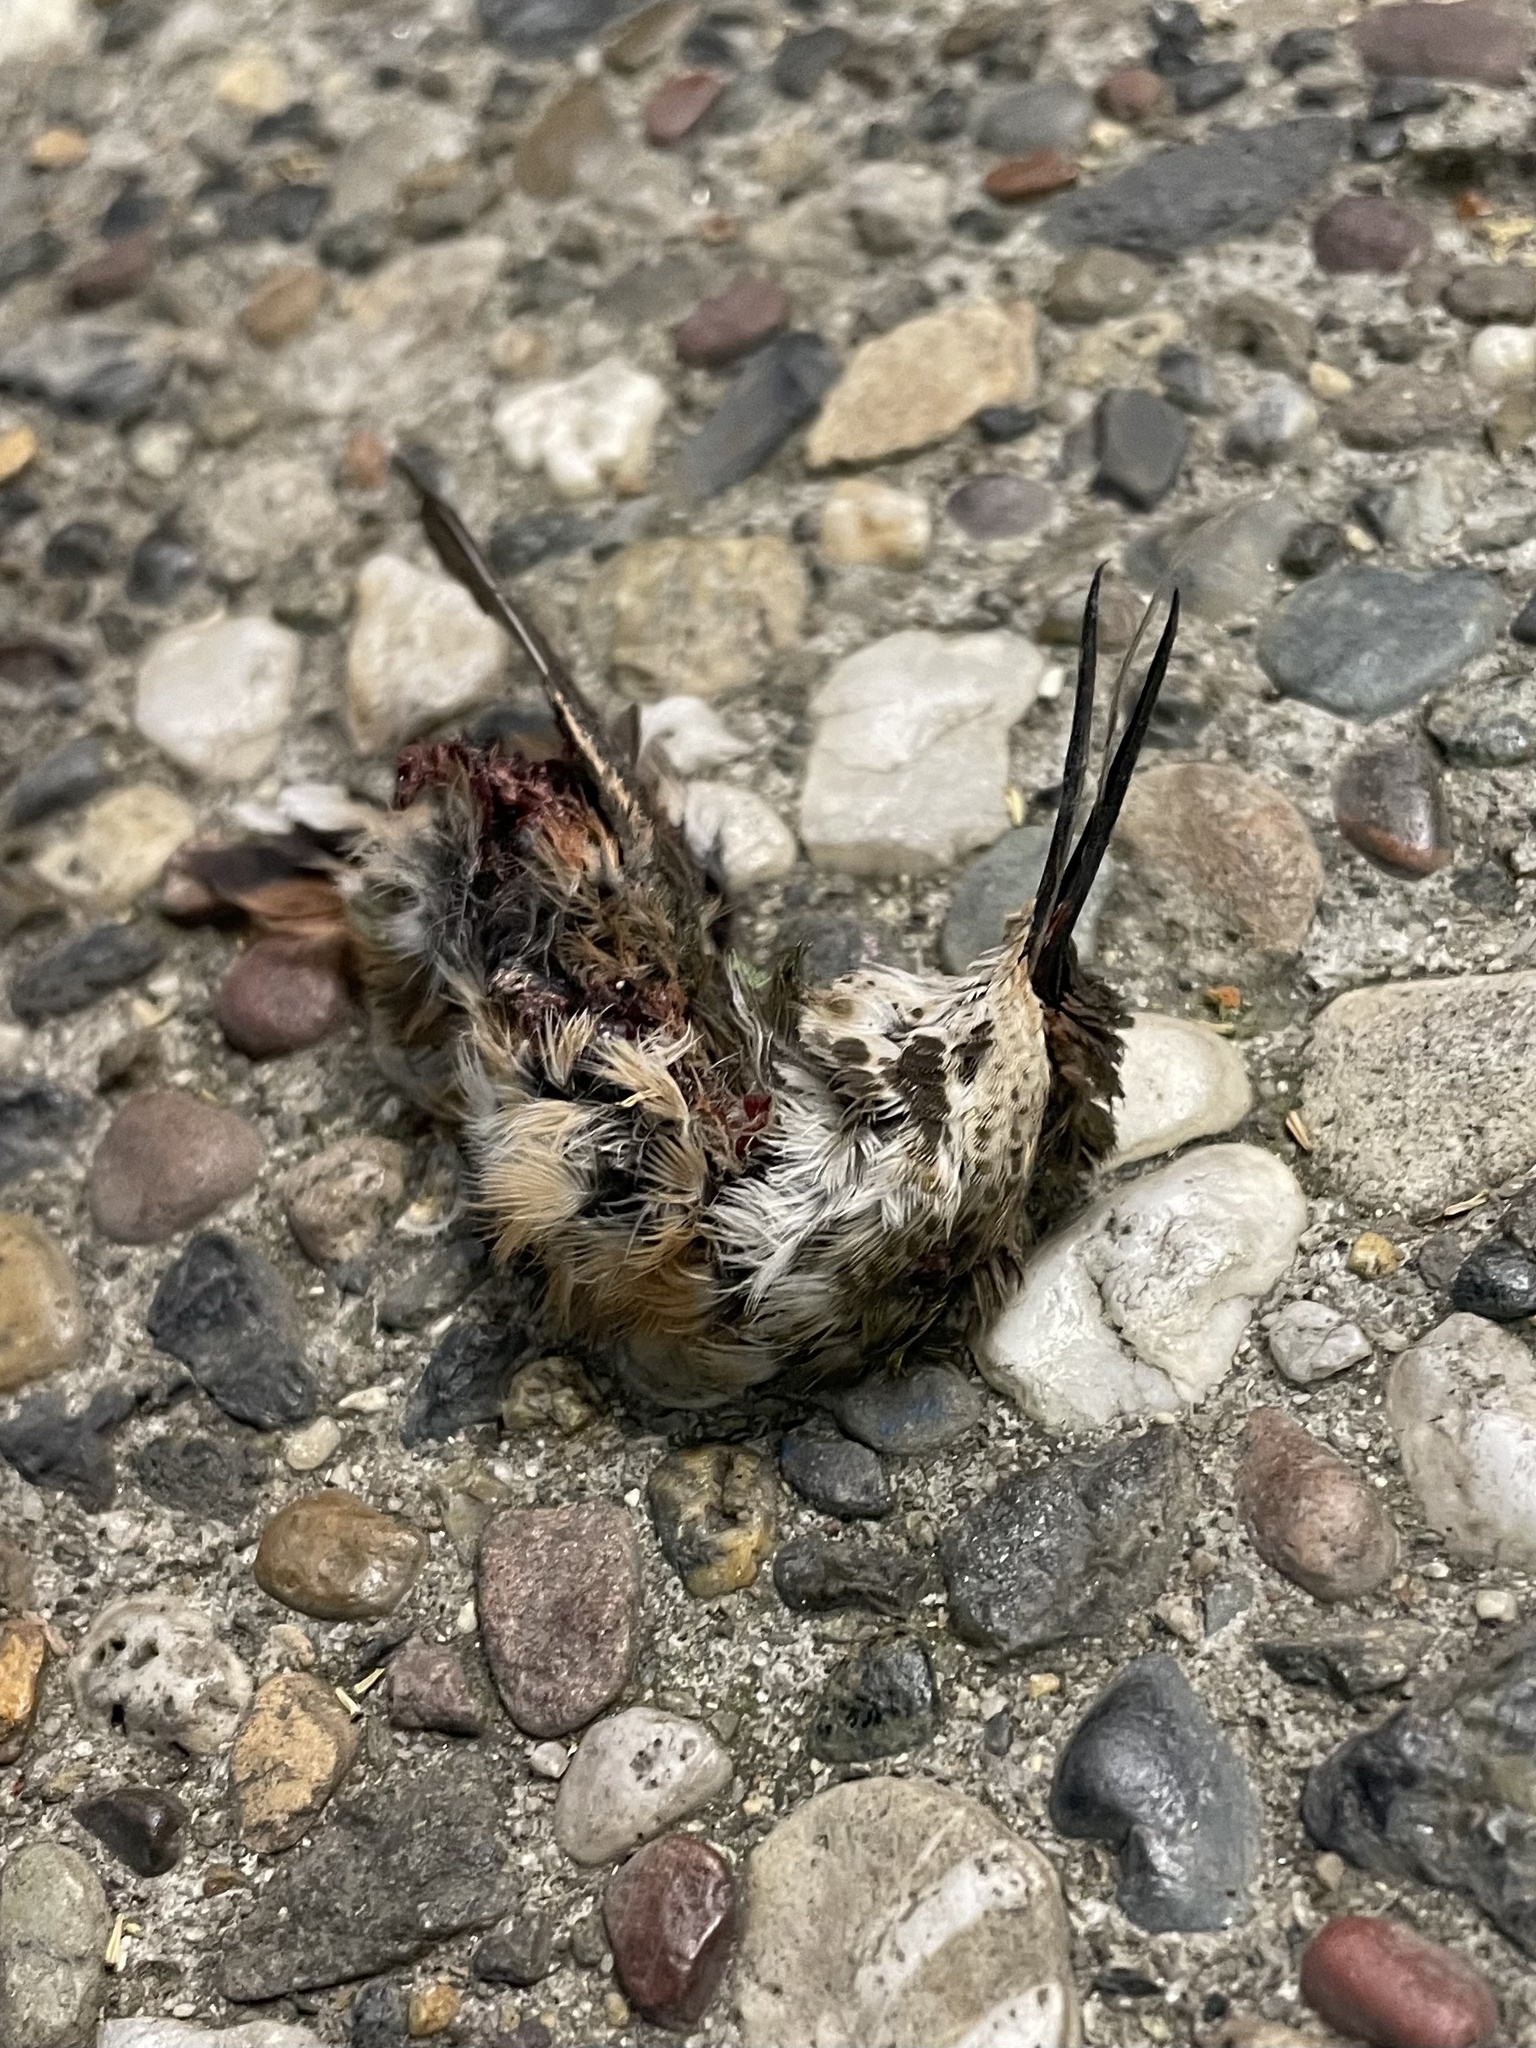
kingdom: Animalia
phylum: Chordata
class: Aves
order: Apodiformes
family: Trochilidae
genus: Calypte
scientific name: Calypte anna
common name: Anna's hummingbird
